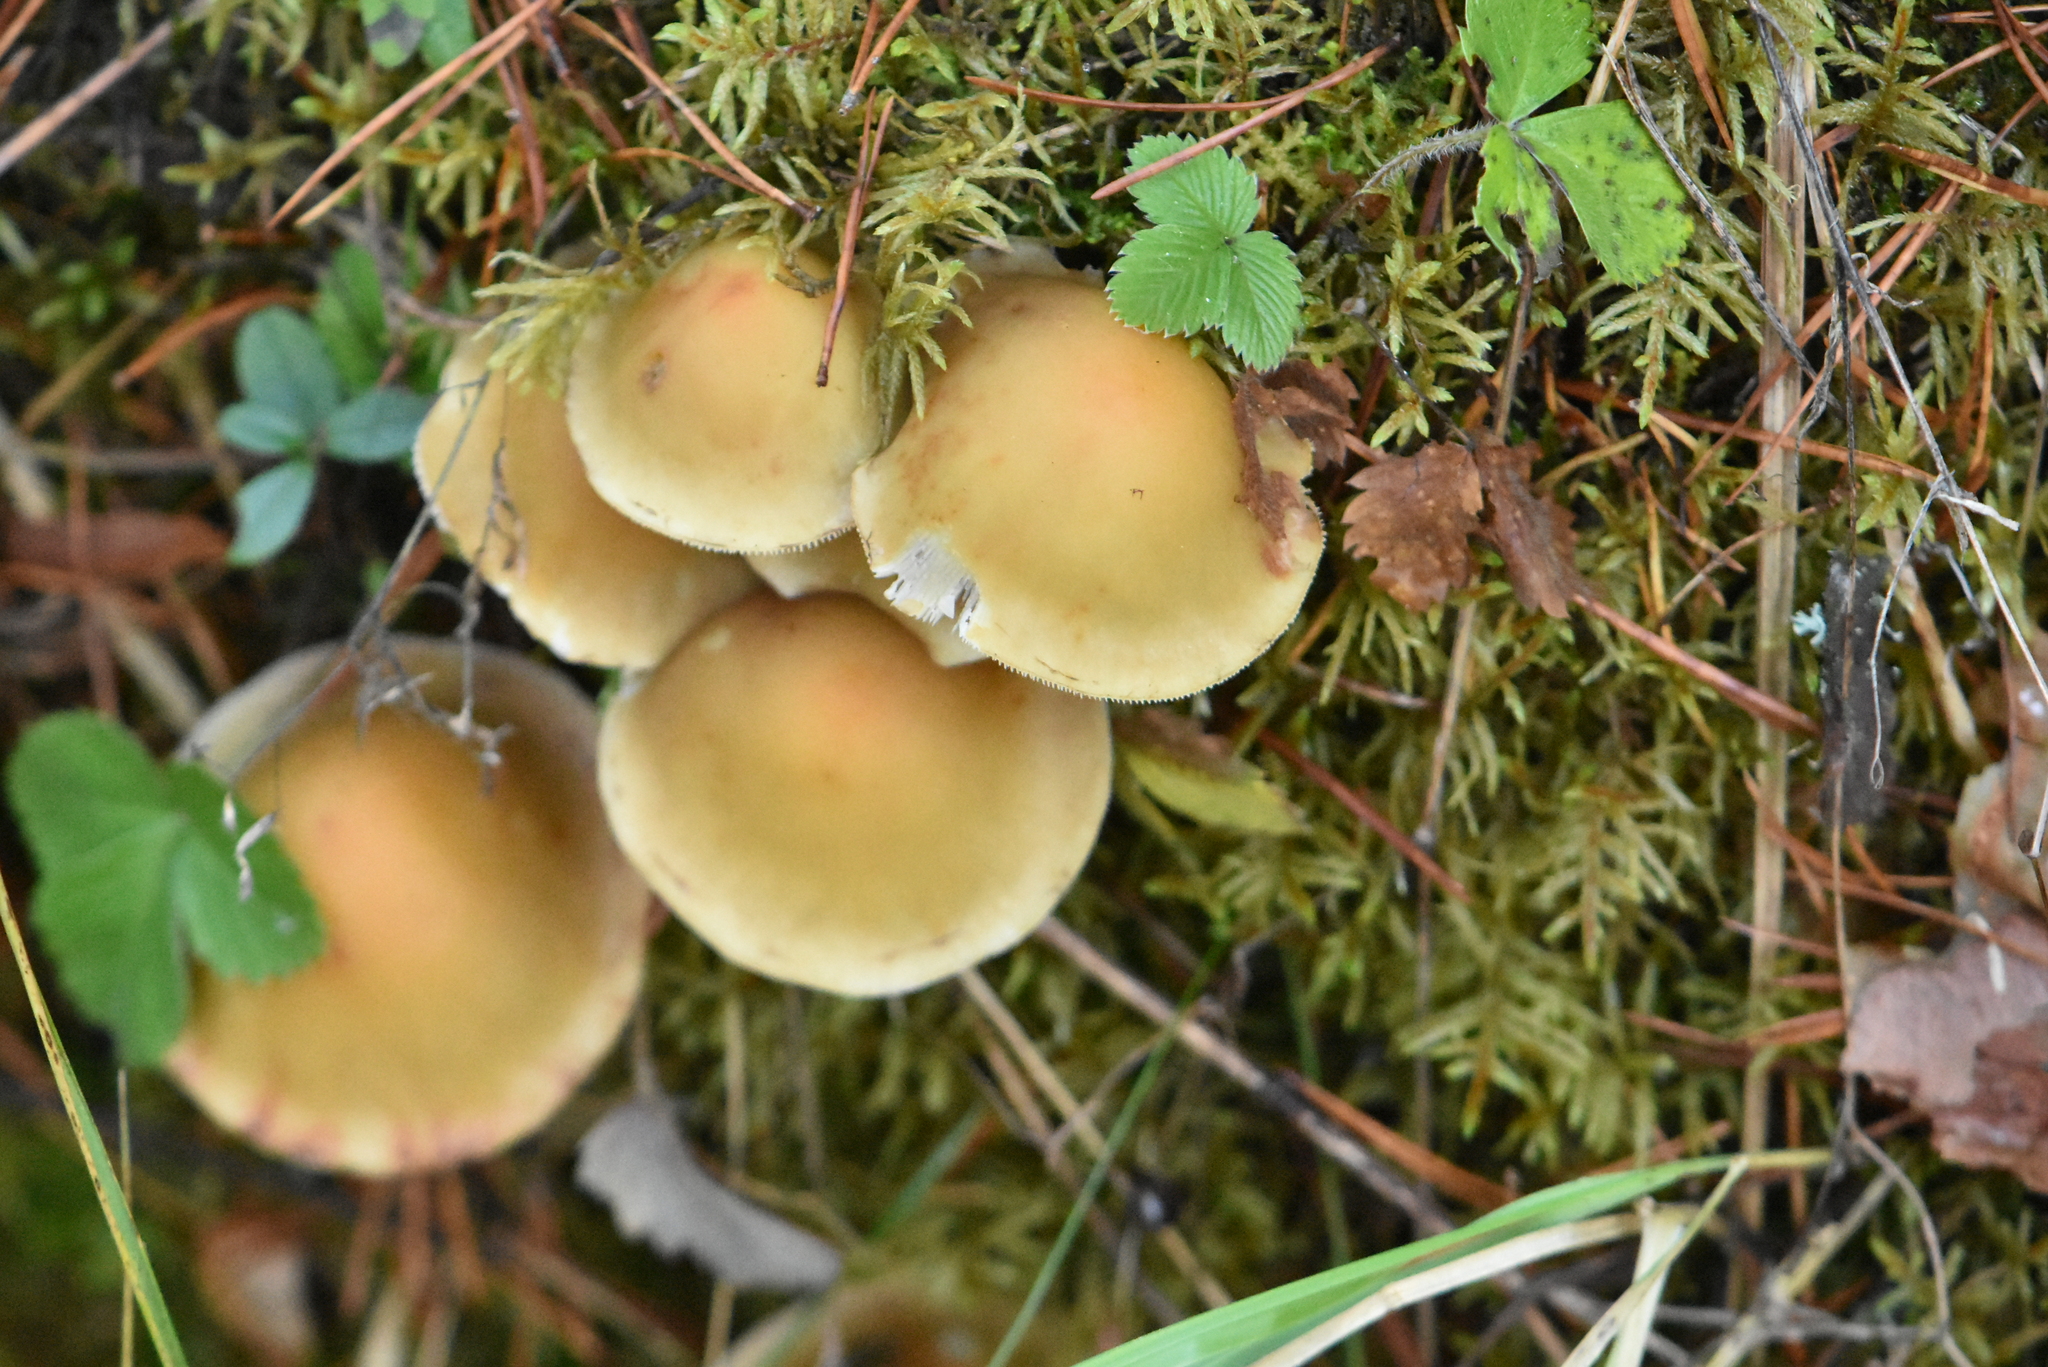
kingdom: Fungi
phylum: Basidiomycota
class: Agaricomycetes
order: Agaricales
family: Strophariaceae
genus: Hypholoma
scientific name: Hypholoma capnoides
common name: Conifer tuft
